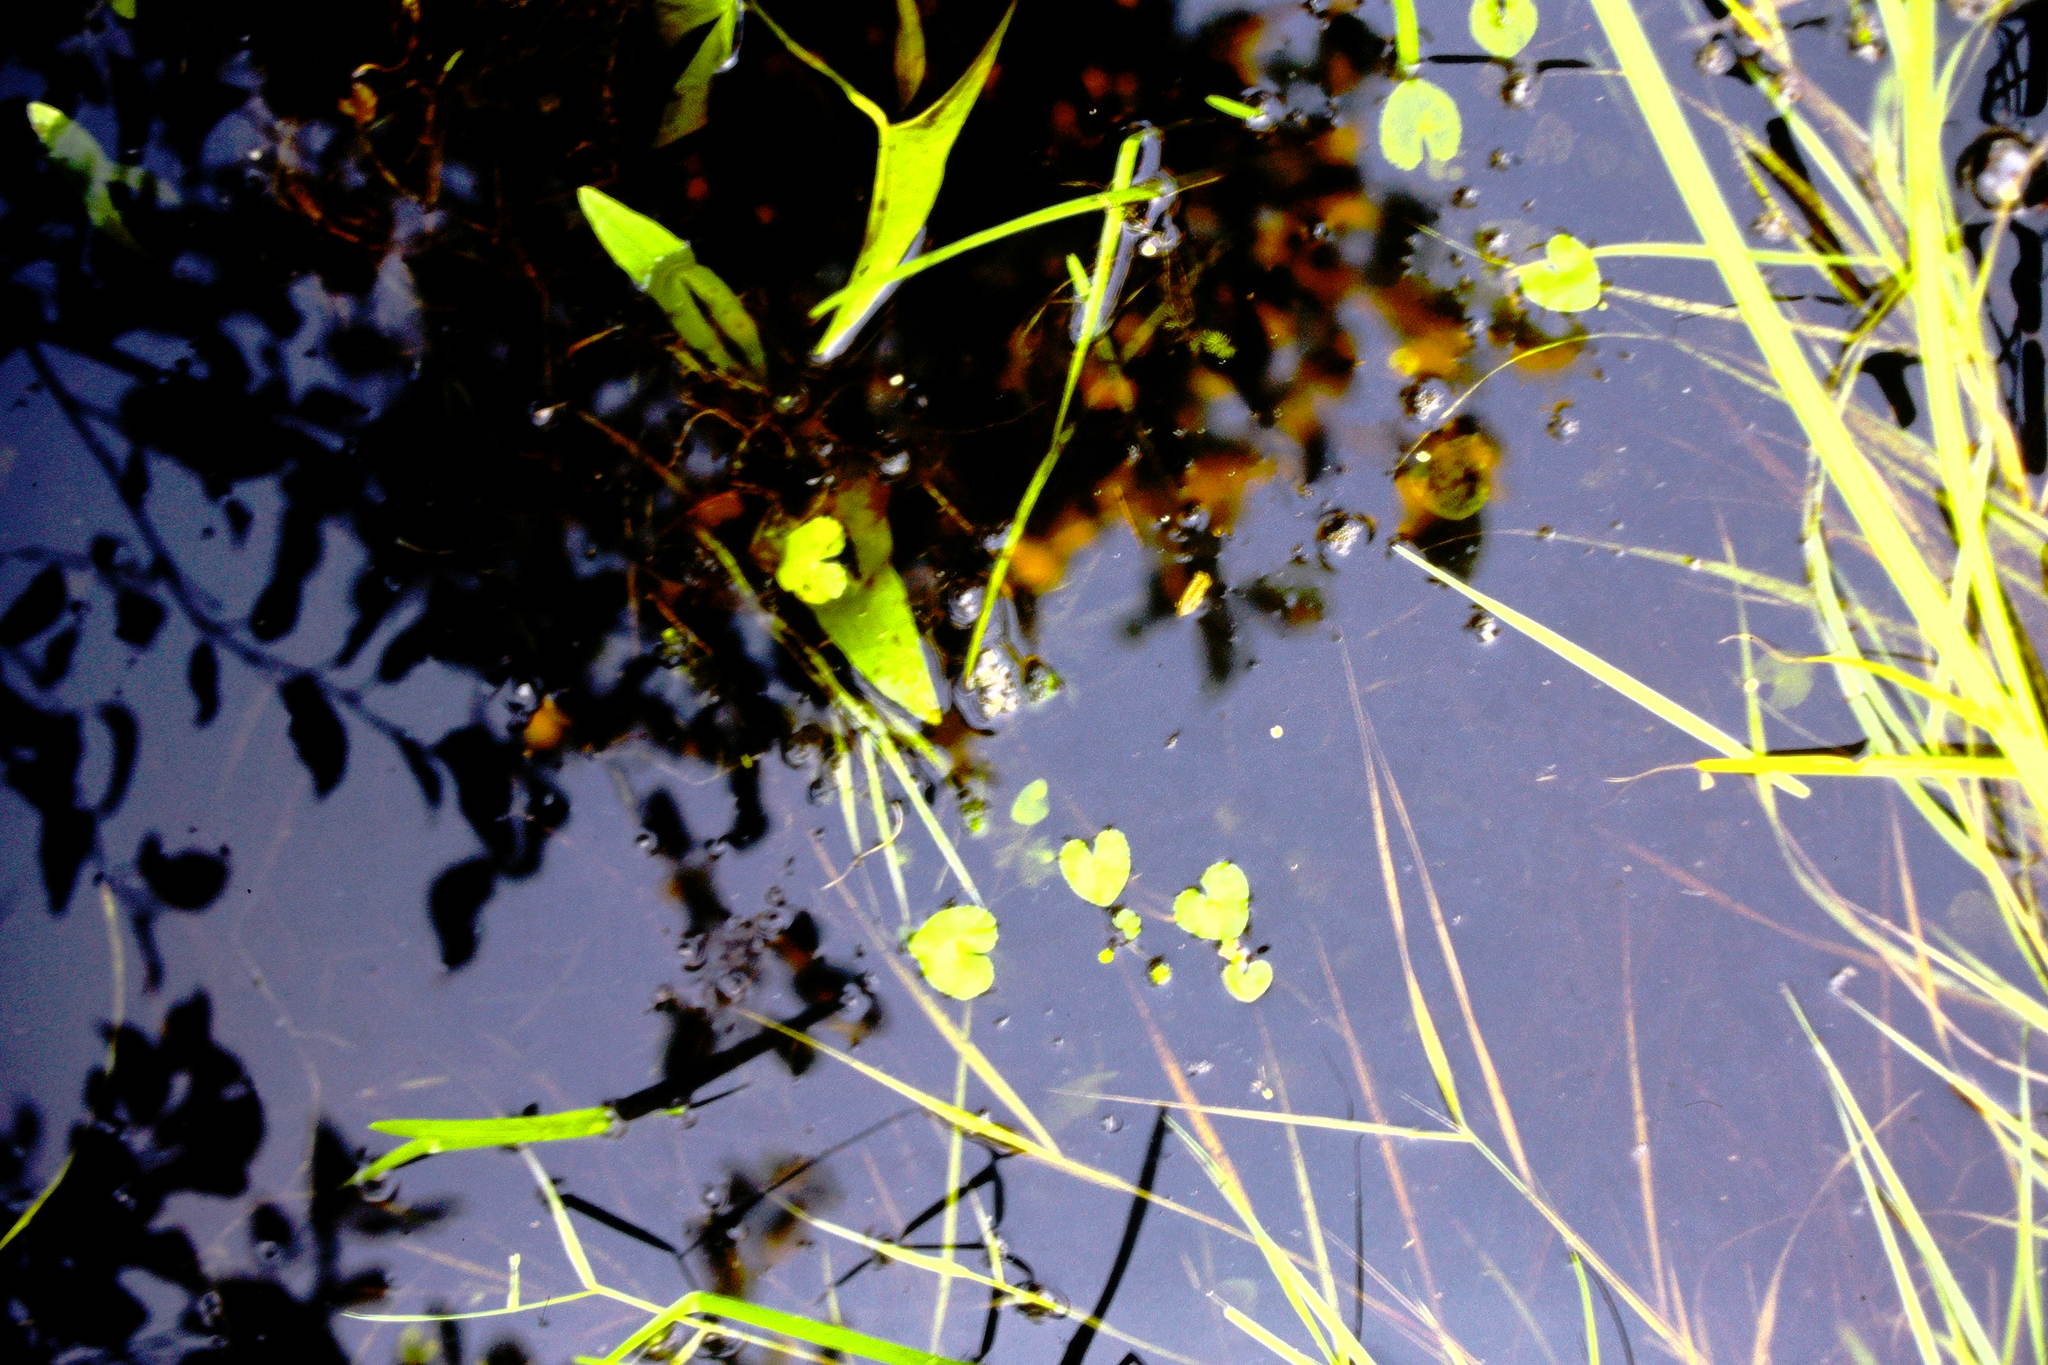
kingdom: Plantae
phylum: Tracheophyta
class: Magnoliopsida
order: Ranunculales
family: Ranunculaceae
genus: Caltha
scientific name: Caltha natans
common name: Floating marsh marigold
